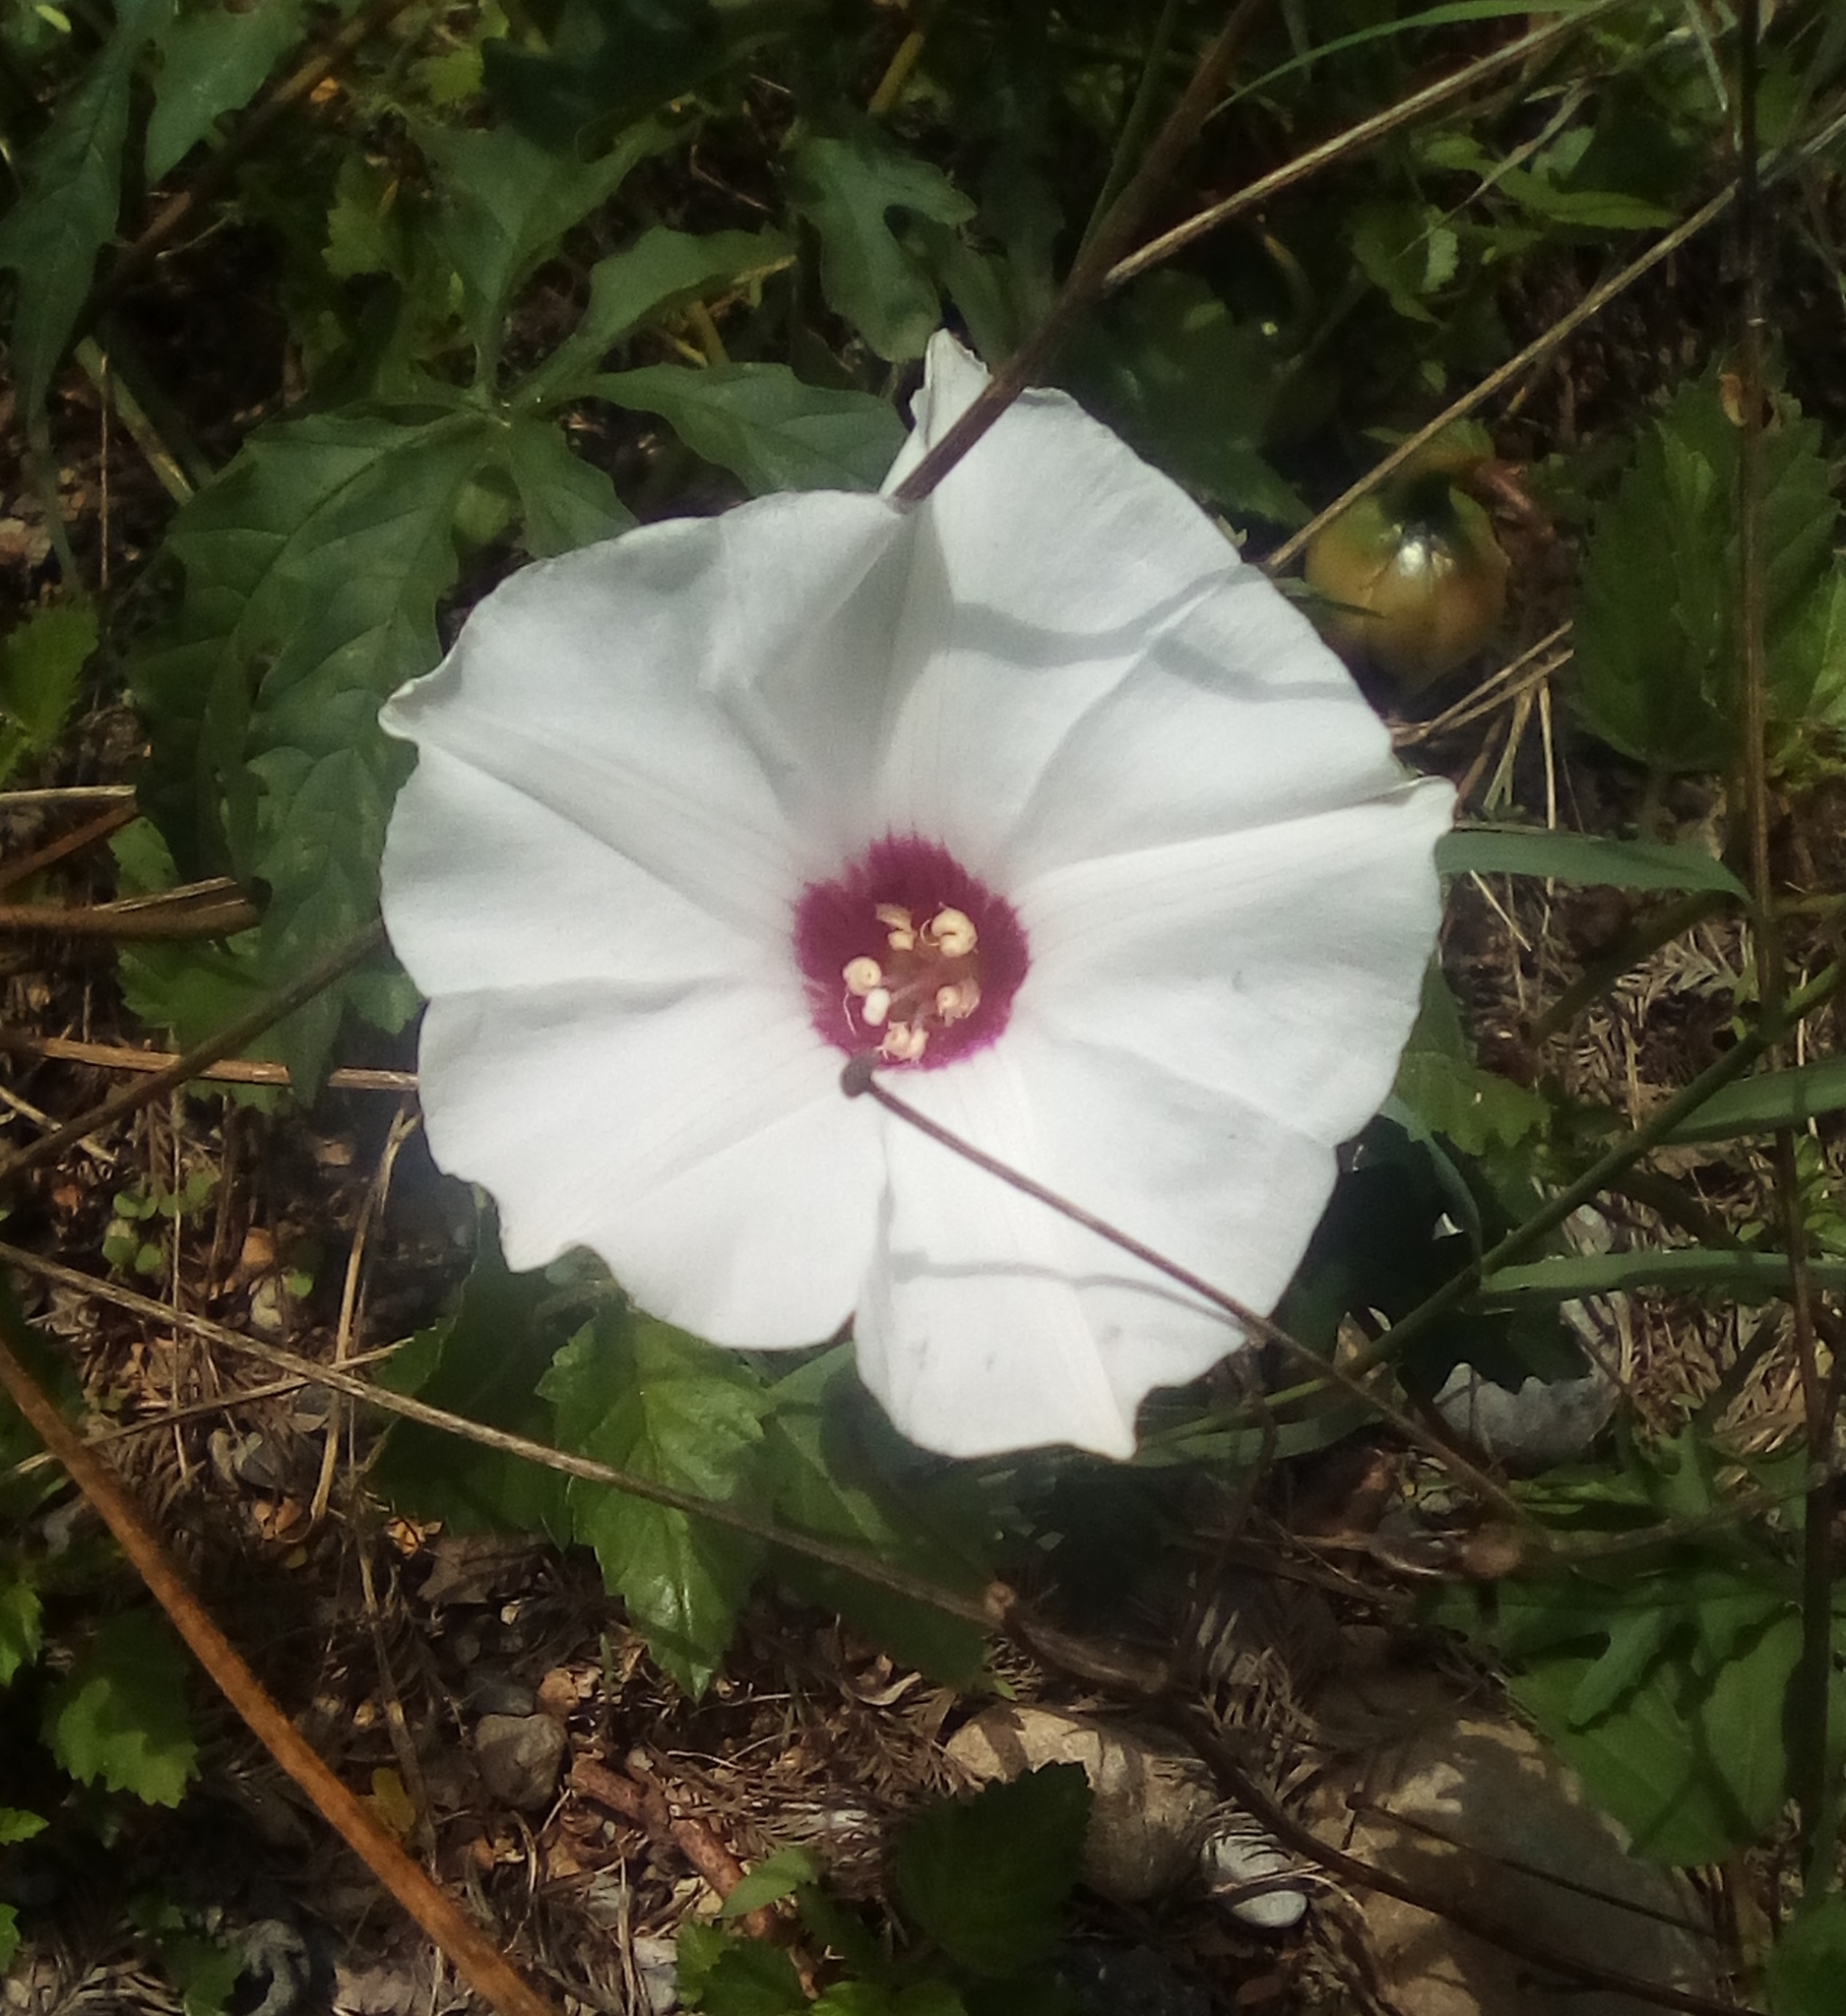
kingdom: Plantae
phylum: Tracheophyta
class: Magnoliopsida
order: Solanales
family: Convolvulaceae
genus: Distimake
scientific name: Distimake dissectus
